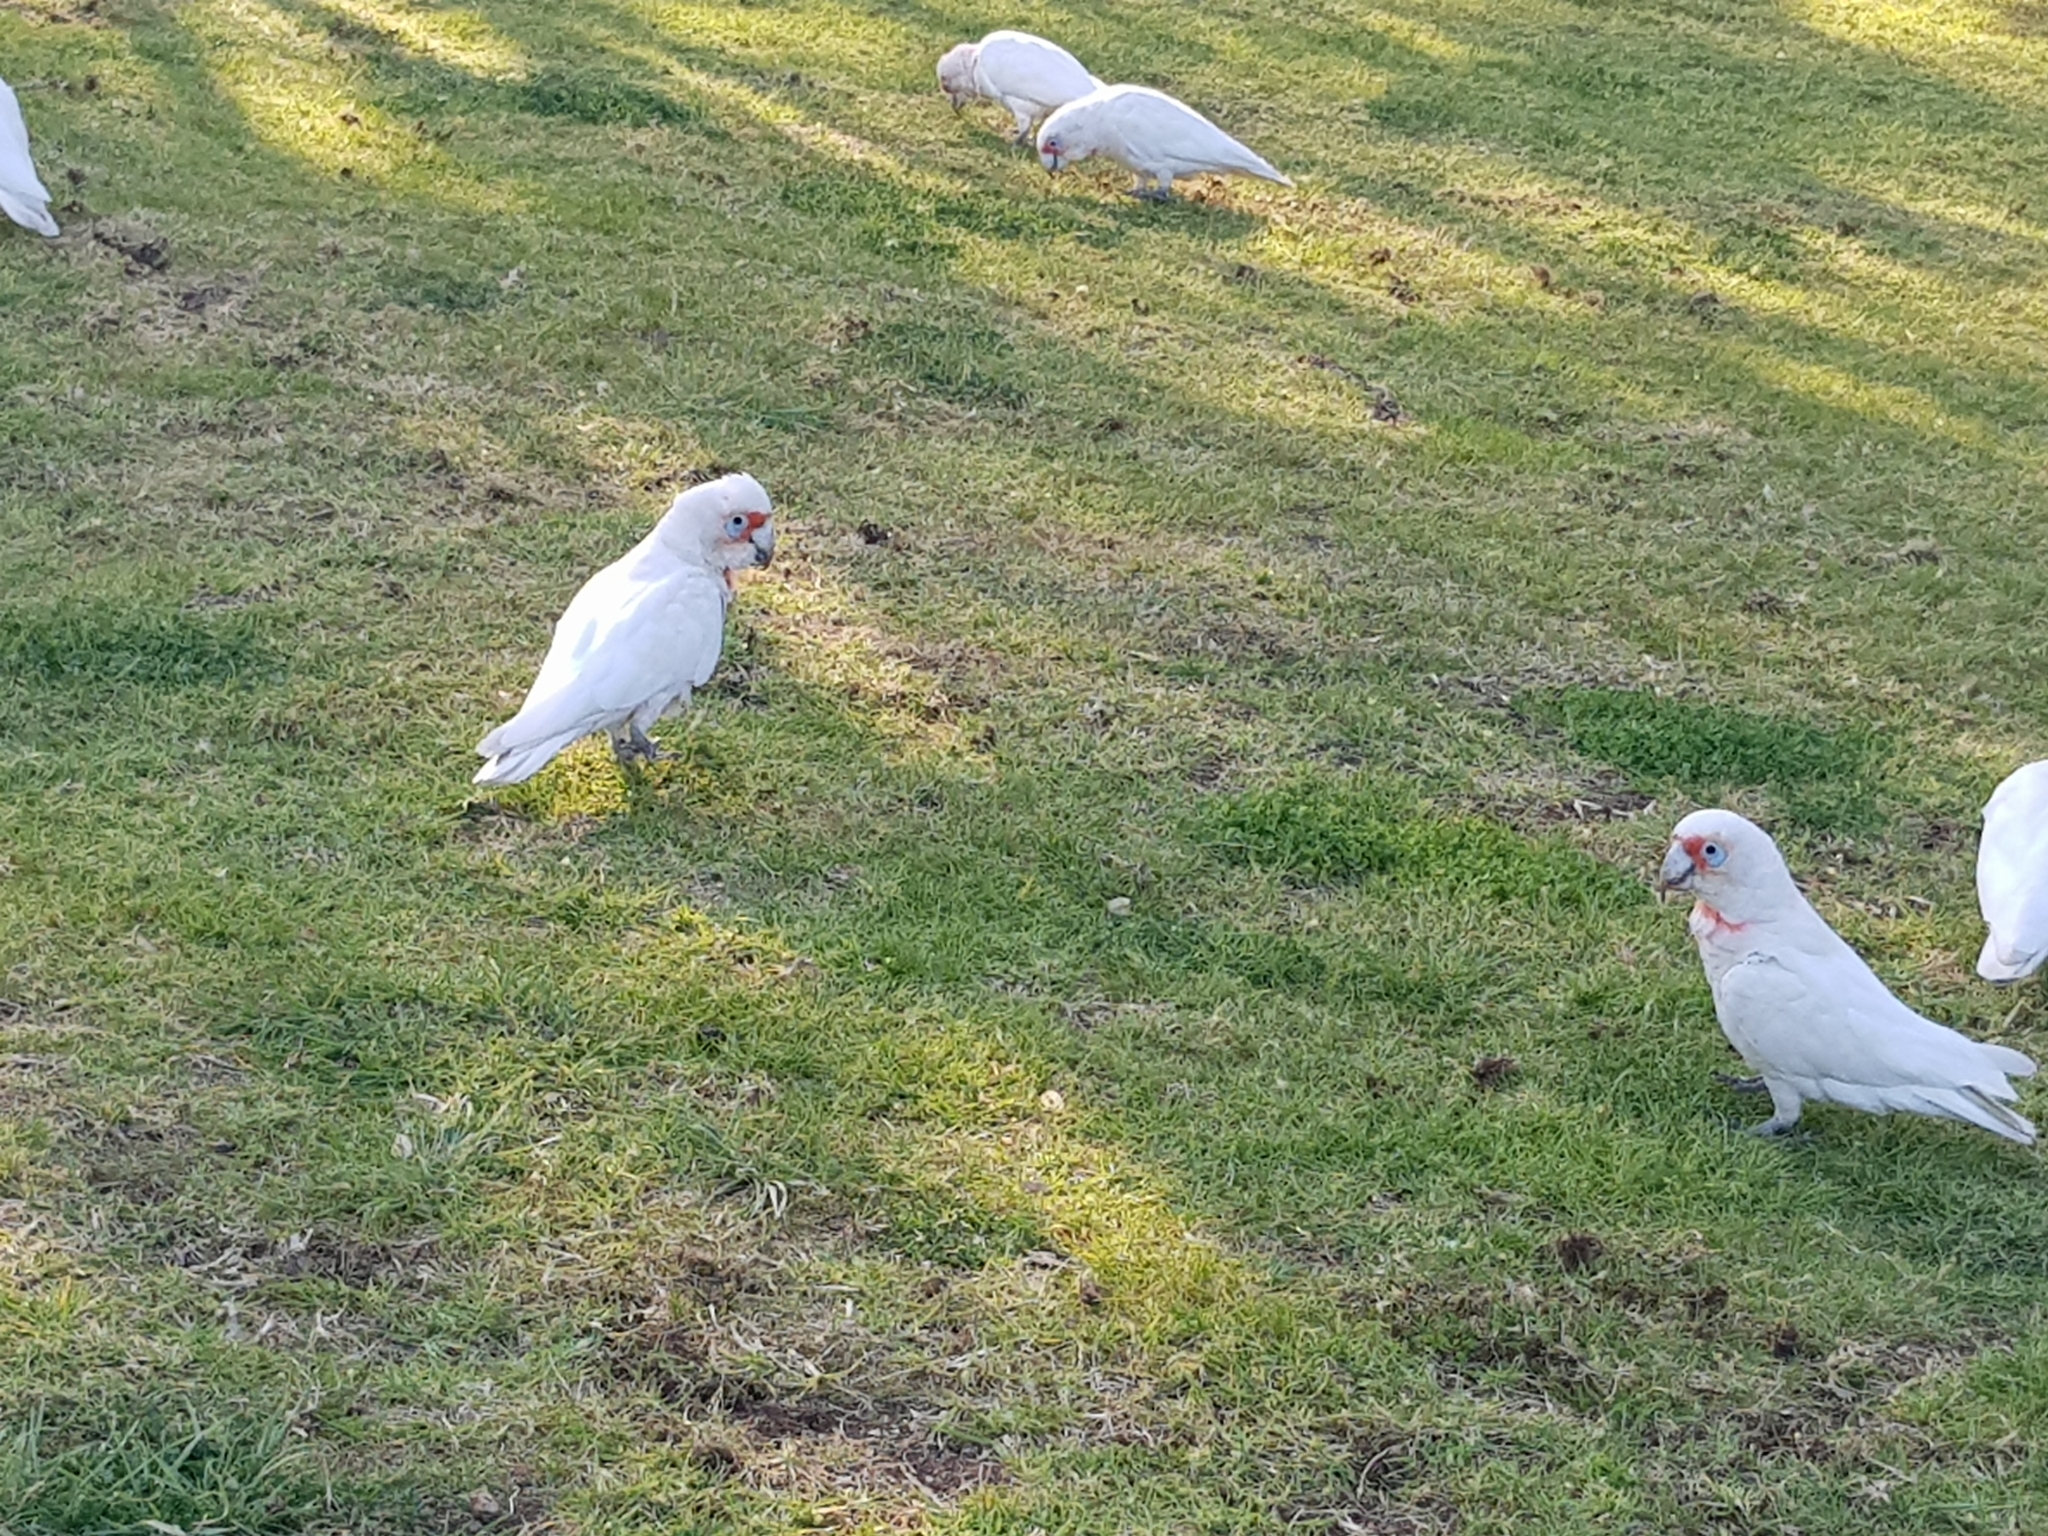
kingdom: Animalia
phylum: Chordata
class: Aves
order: Psittaciformes
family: Psittacidae
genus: Cacatua
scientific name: Cacatua tenuirostris
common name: Long-billed corella
